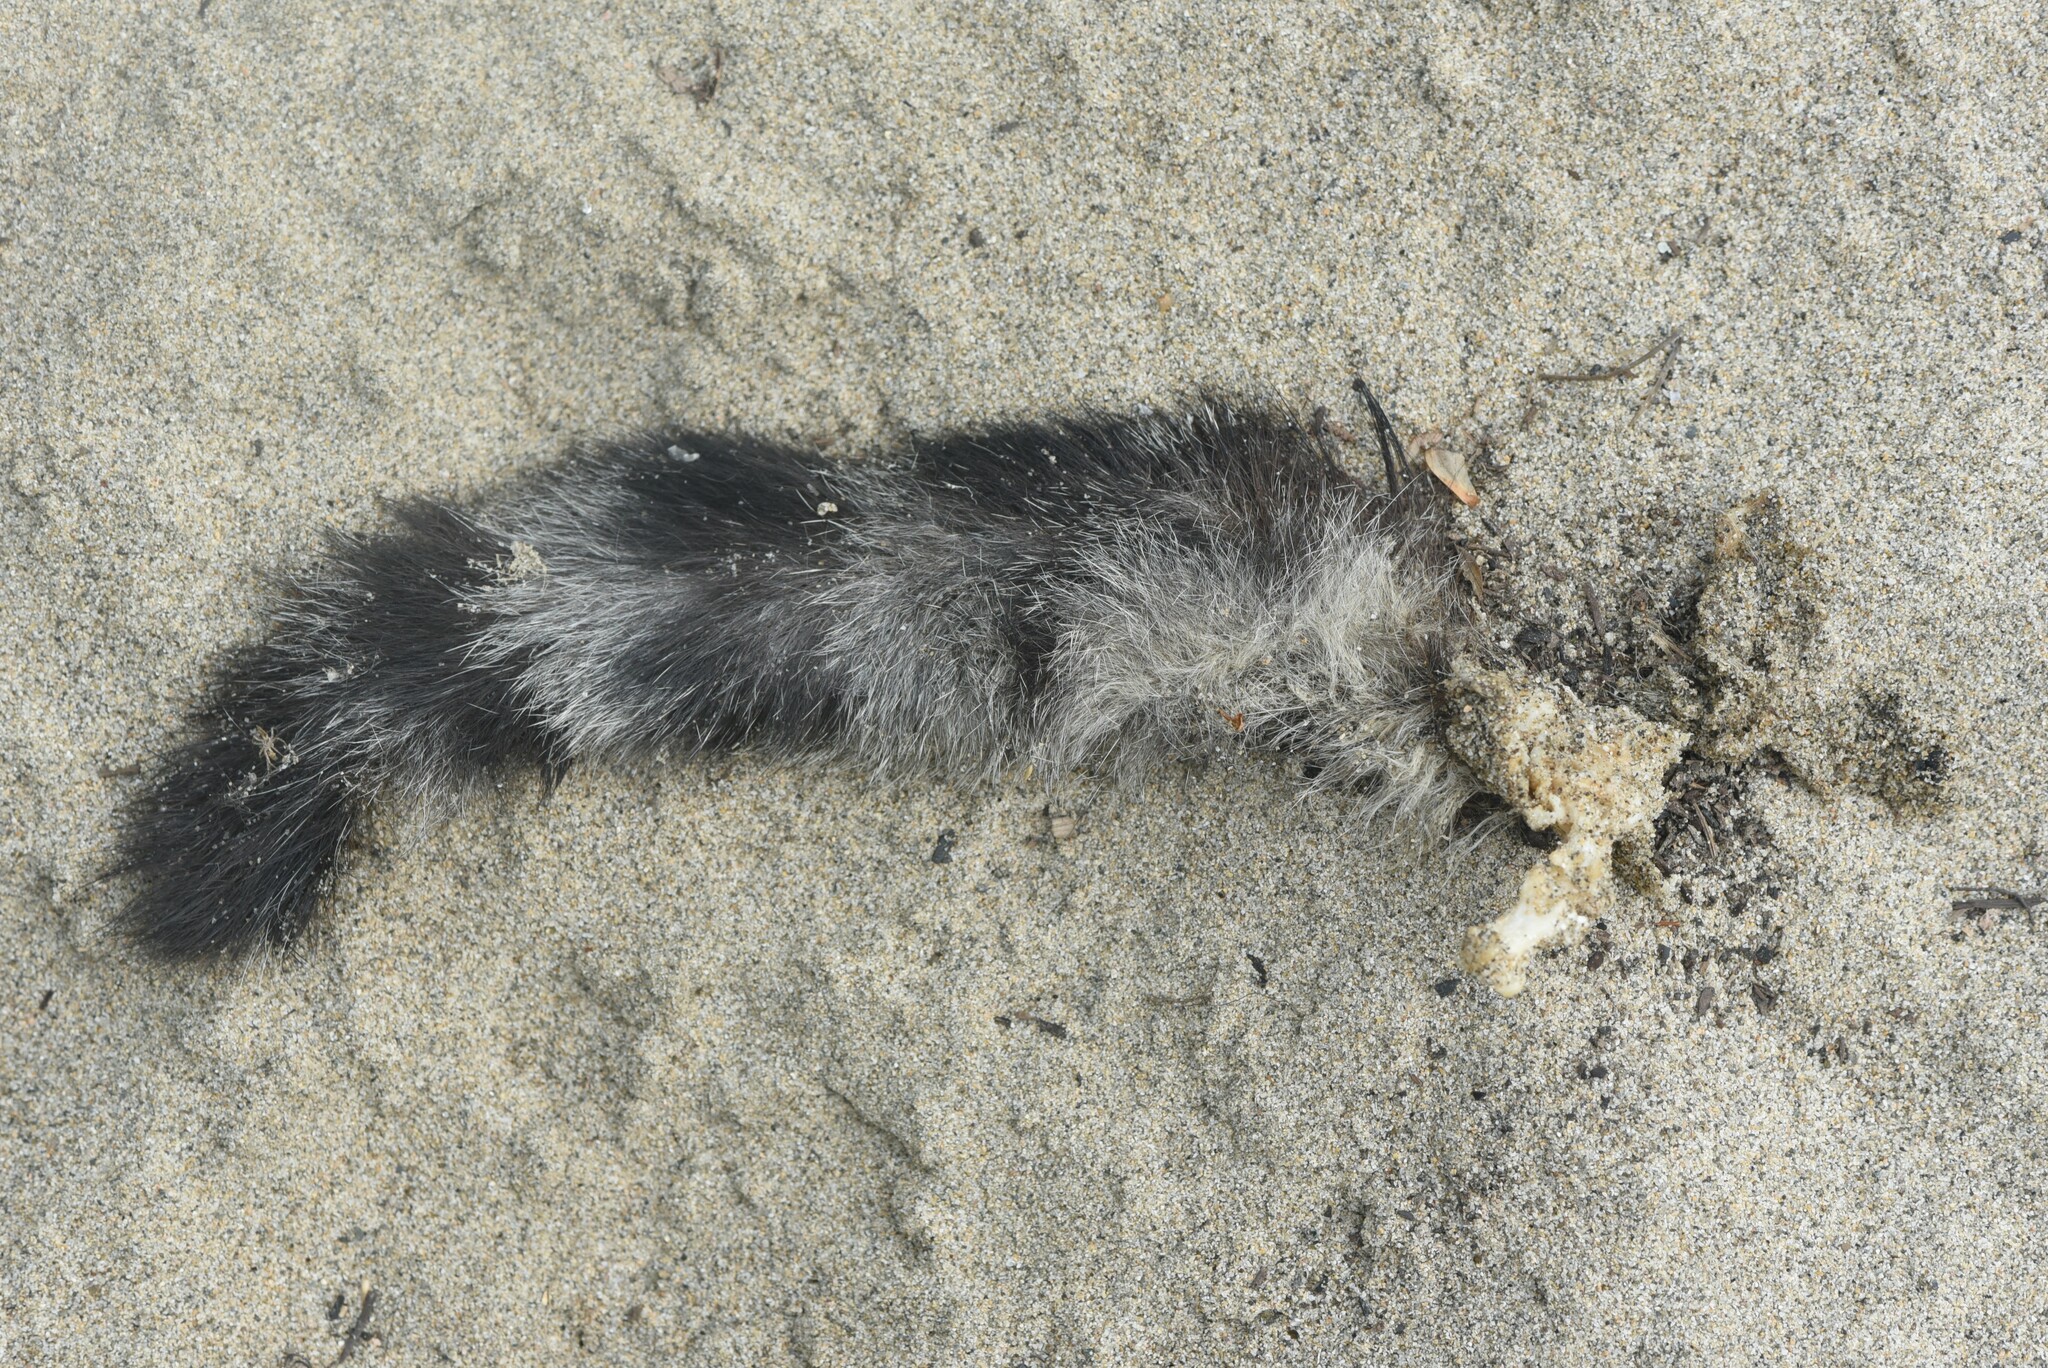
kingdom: Animalia
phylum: Chordata
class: Mammalia
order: Carnivora
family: Procyonidae
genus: Procyon
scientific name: Procyon lotor
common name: Raccoon
